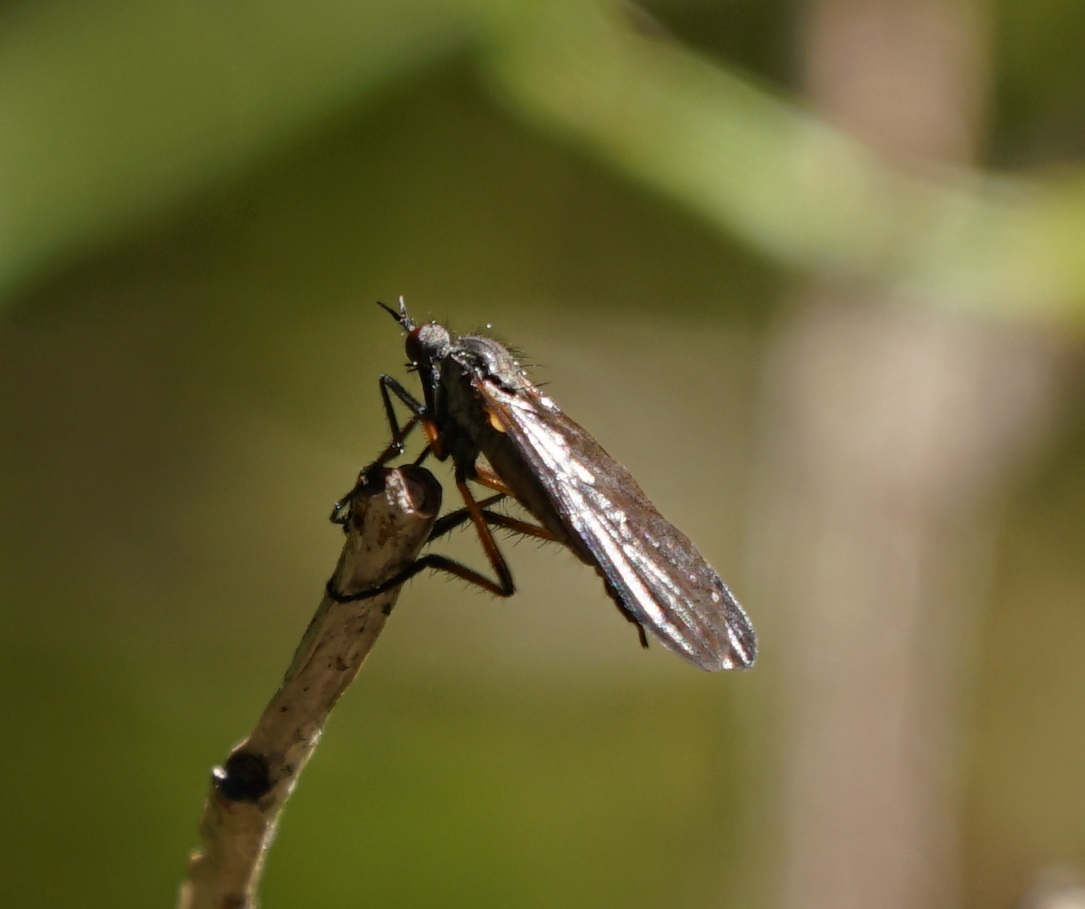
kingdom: Animalia
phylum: Arthropoda
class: Insecta
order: Diptera
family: Empididae
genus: Empis
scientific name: Empis borealis
